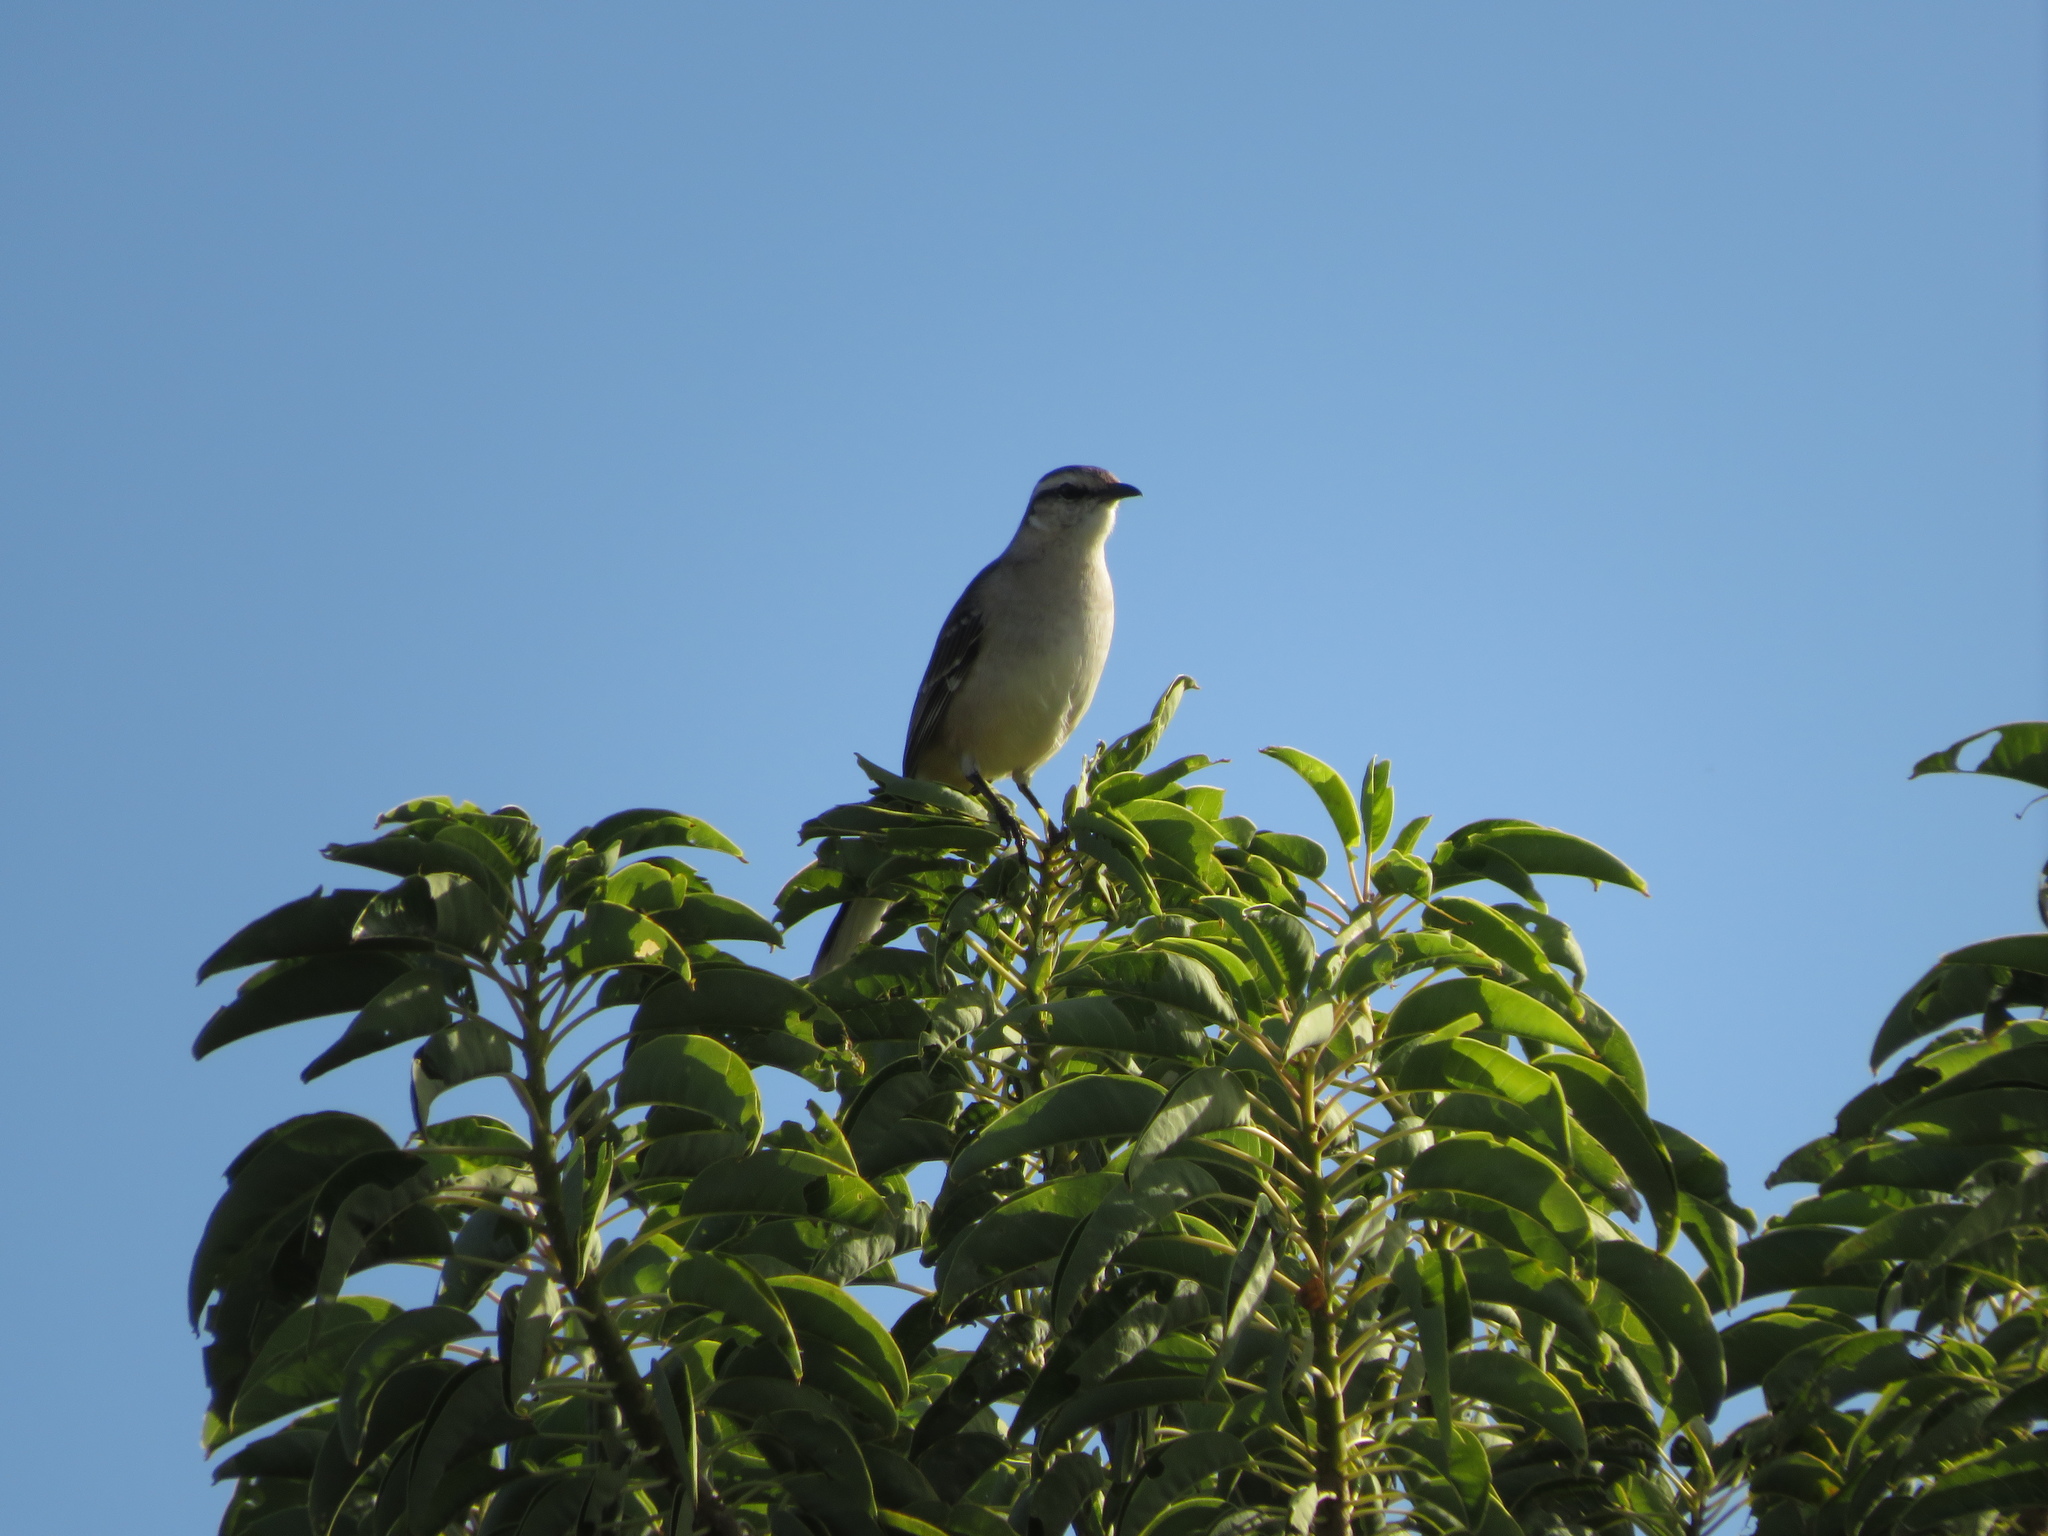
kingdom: Animalia
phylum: Chordata
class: Aves
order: Passeriformes
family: Mimidae
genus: Mimus
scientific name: Mimus saturninus
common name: Chalk-browed mockingbird
